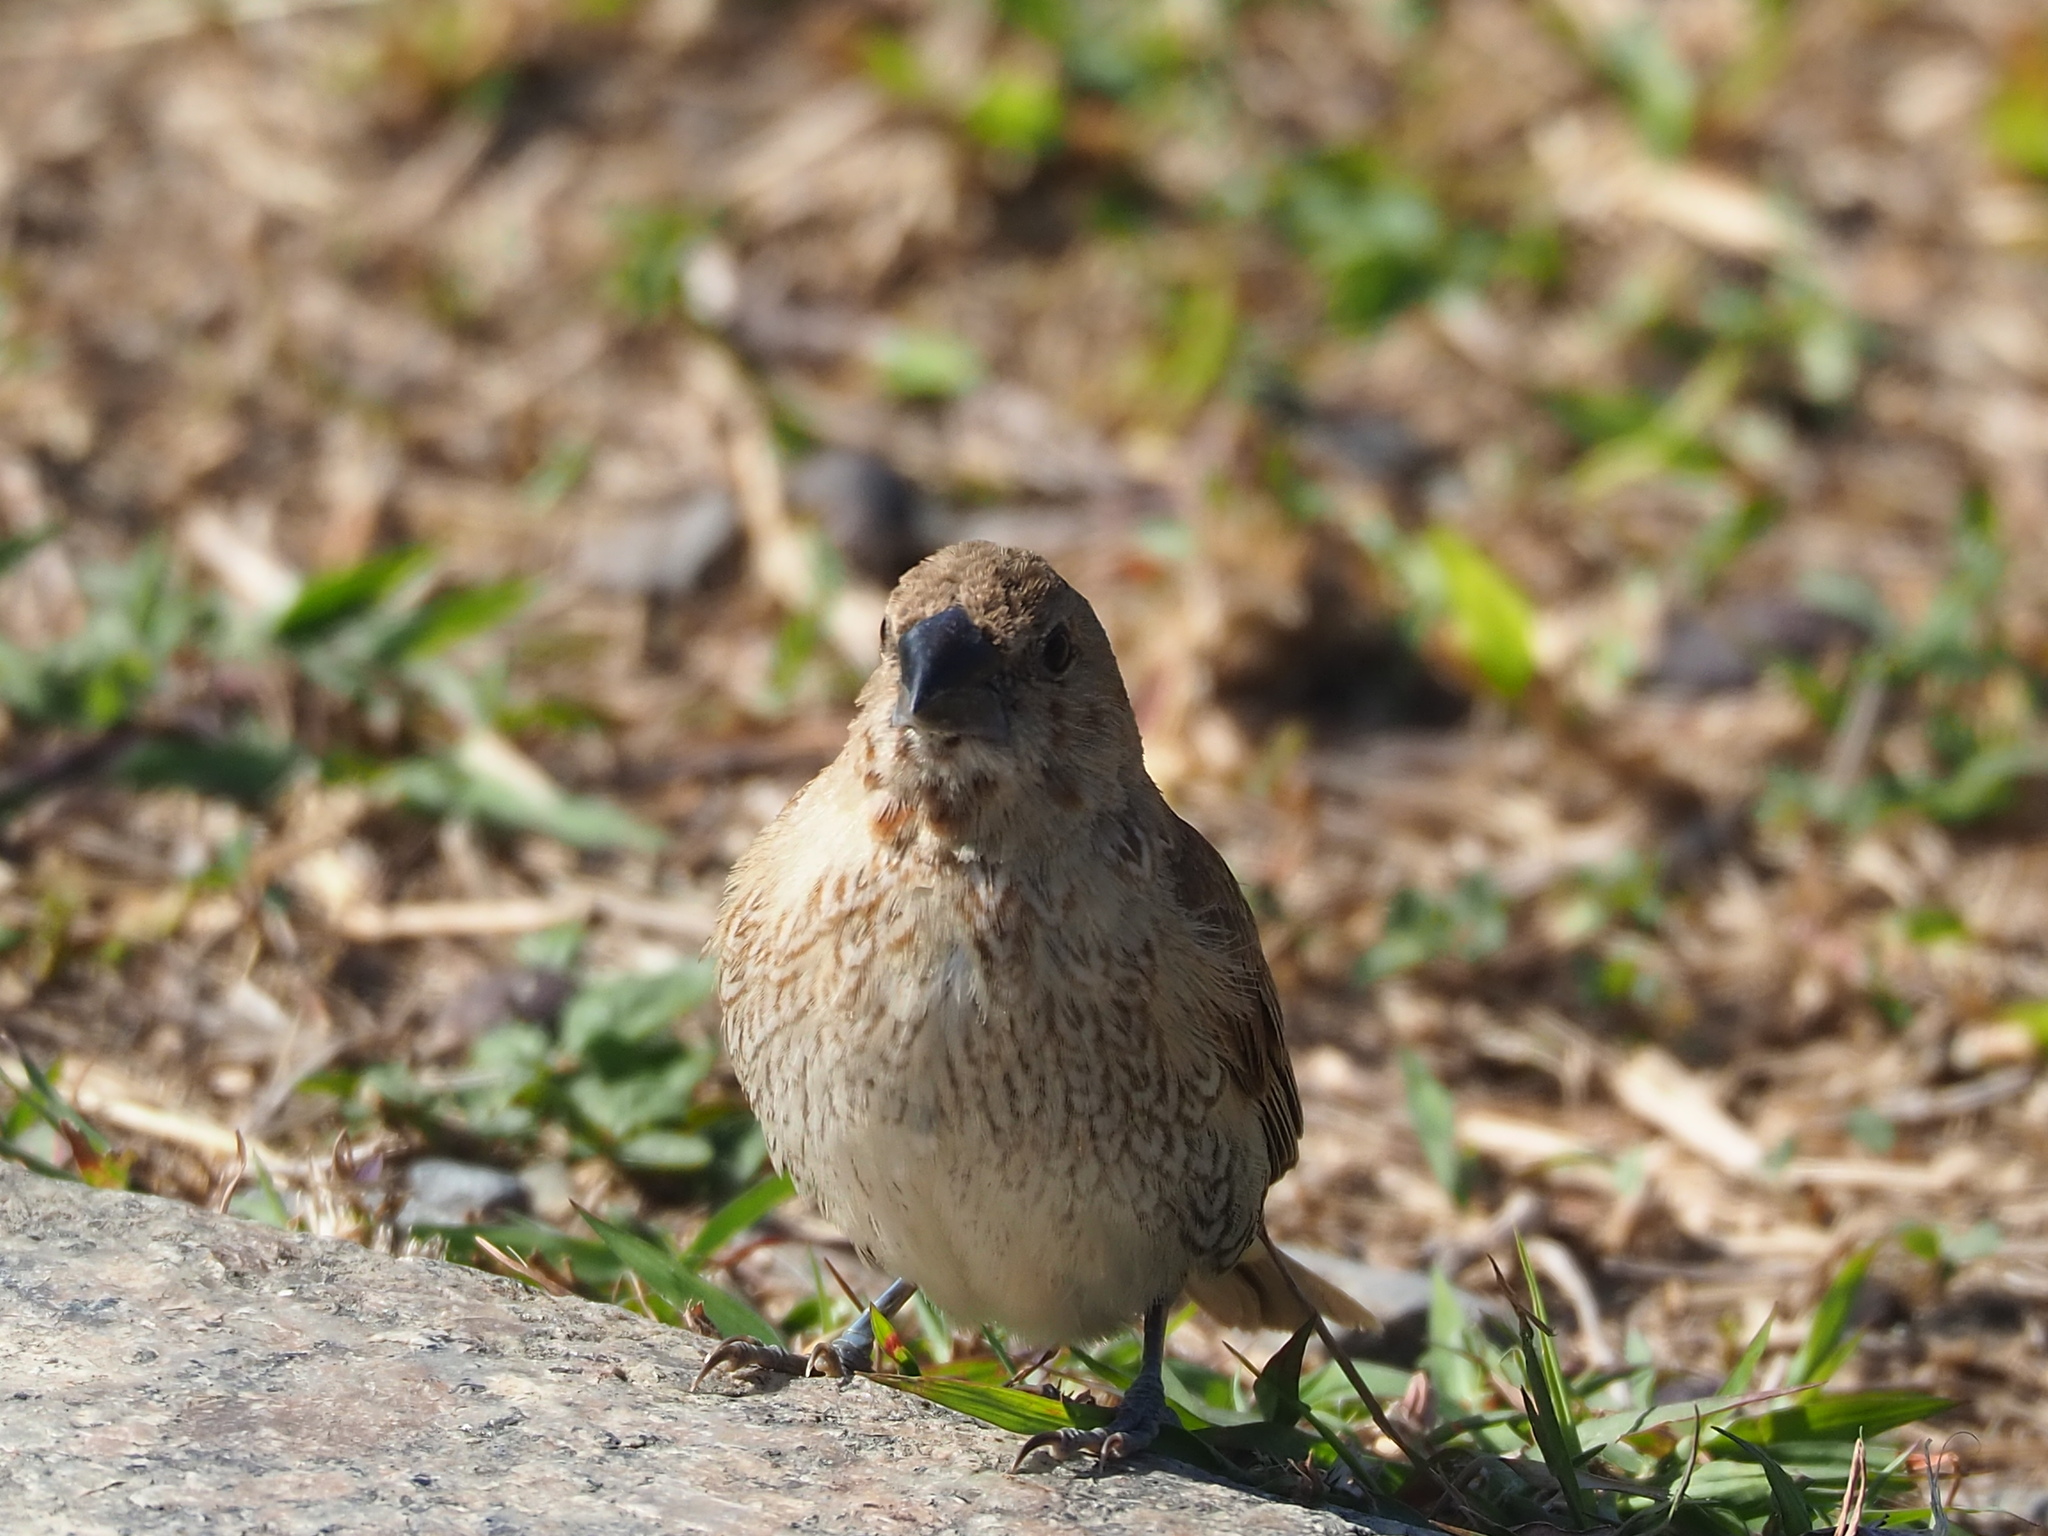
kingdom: Animalia
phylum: Chordata
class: Aves
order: Passeriformes
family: Estrildidae
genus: Lonchura
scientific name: Lonchura punctulata
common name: Scaly-breasted munia
